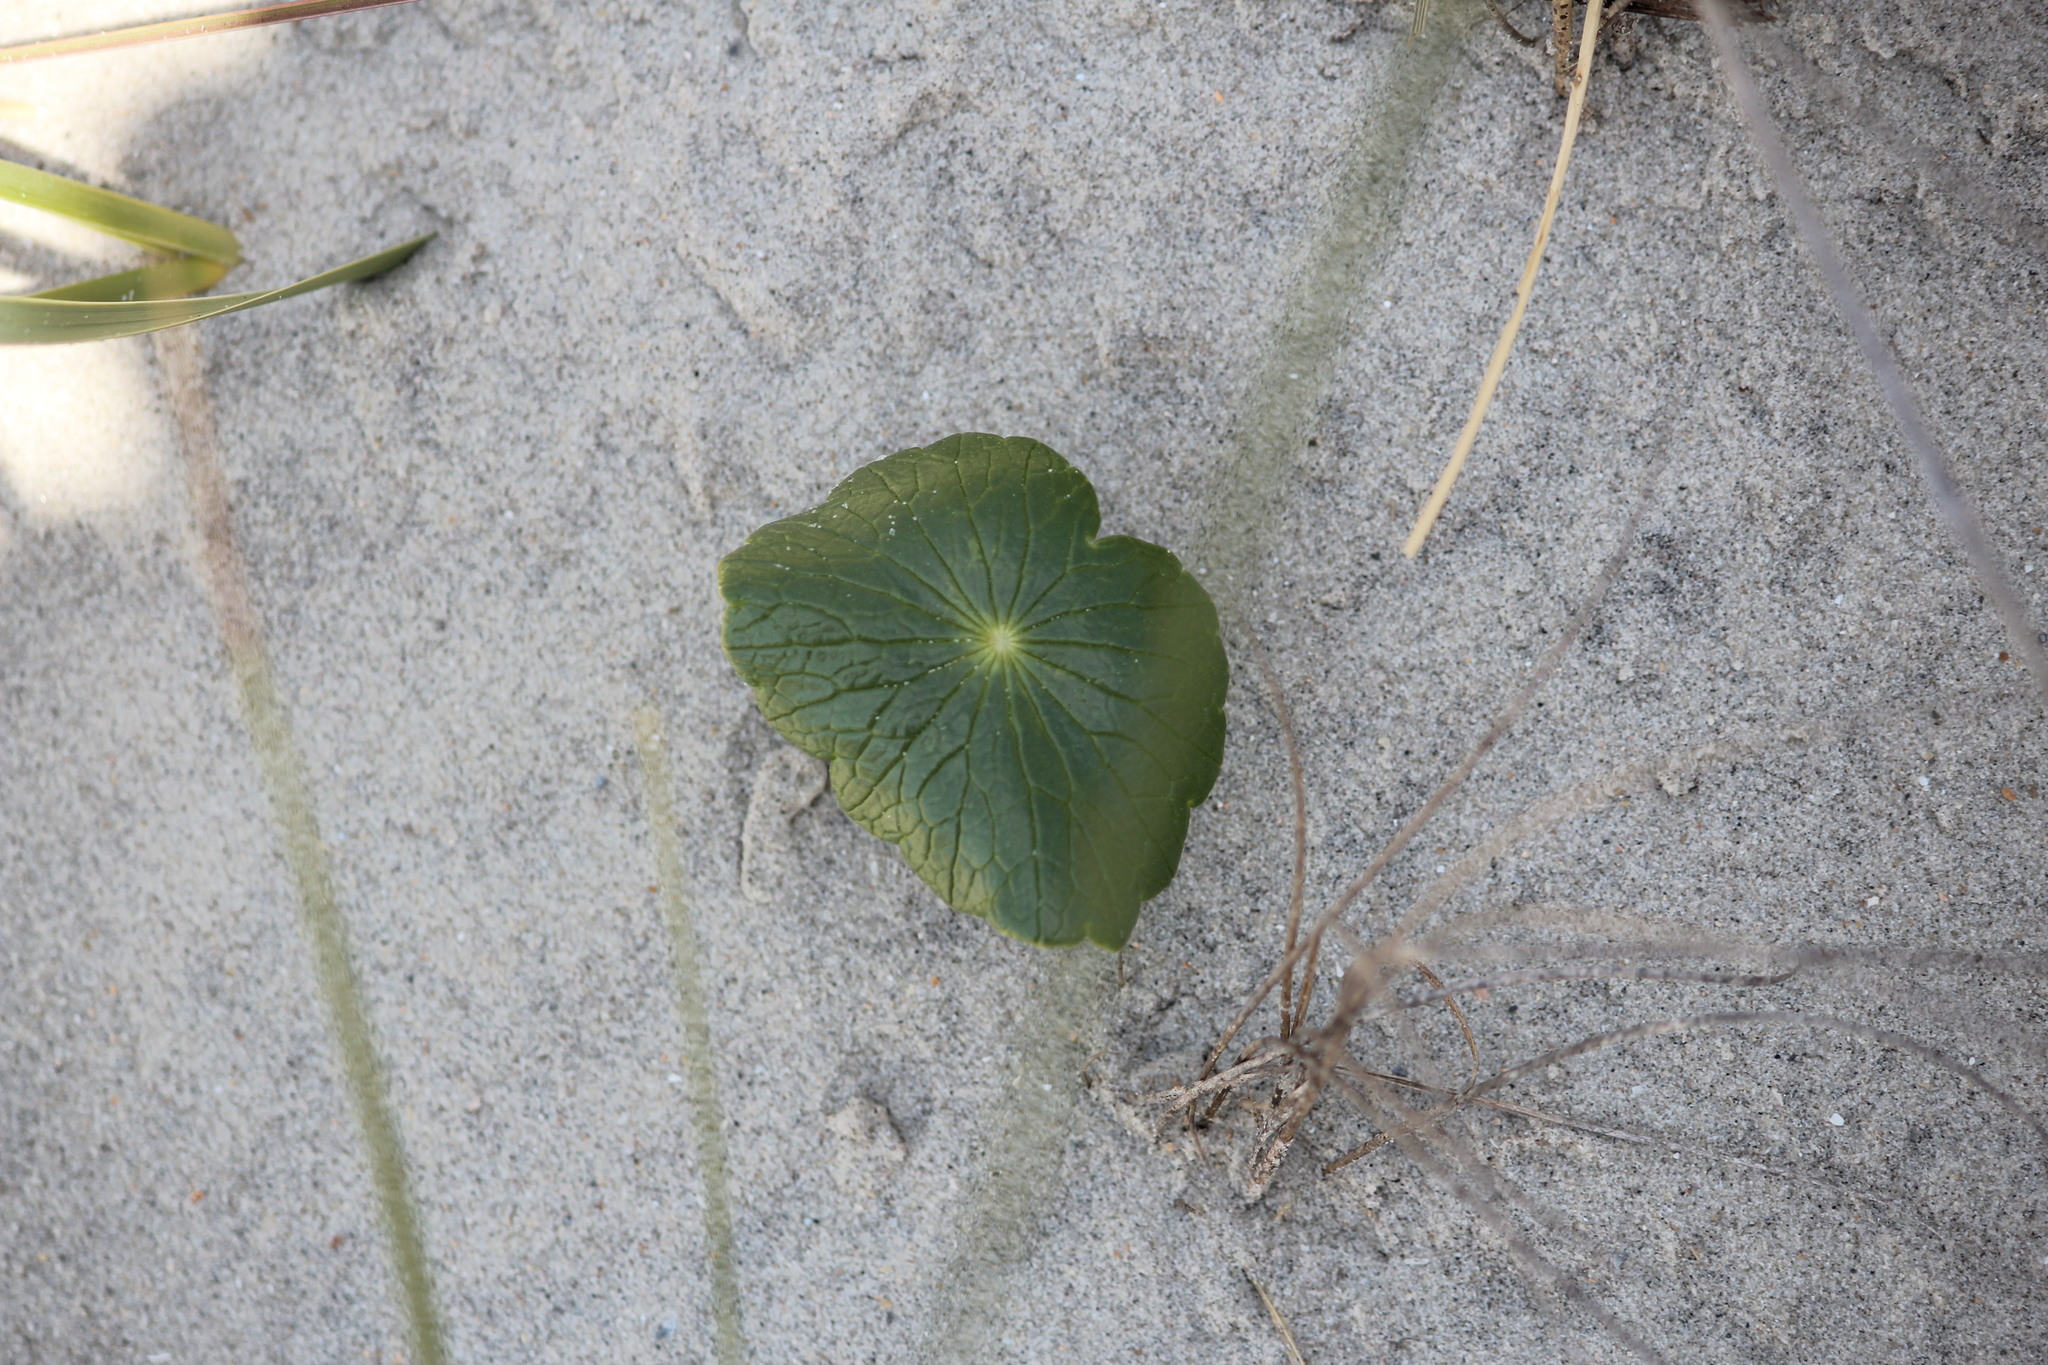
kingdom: Plantae
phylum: Tracheophyta
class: Magnoliopsida
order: Apiales
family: Araliaceae
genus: Hydrocotyle
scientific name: Hydrocotyle bonariensis
